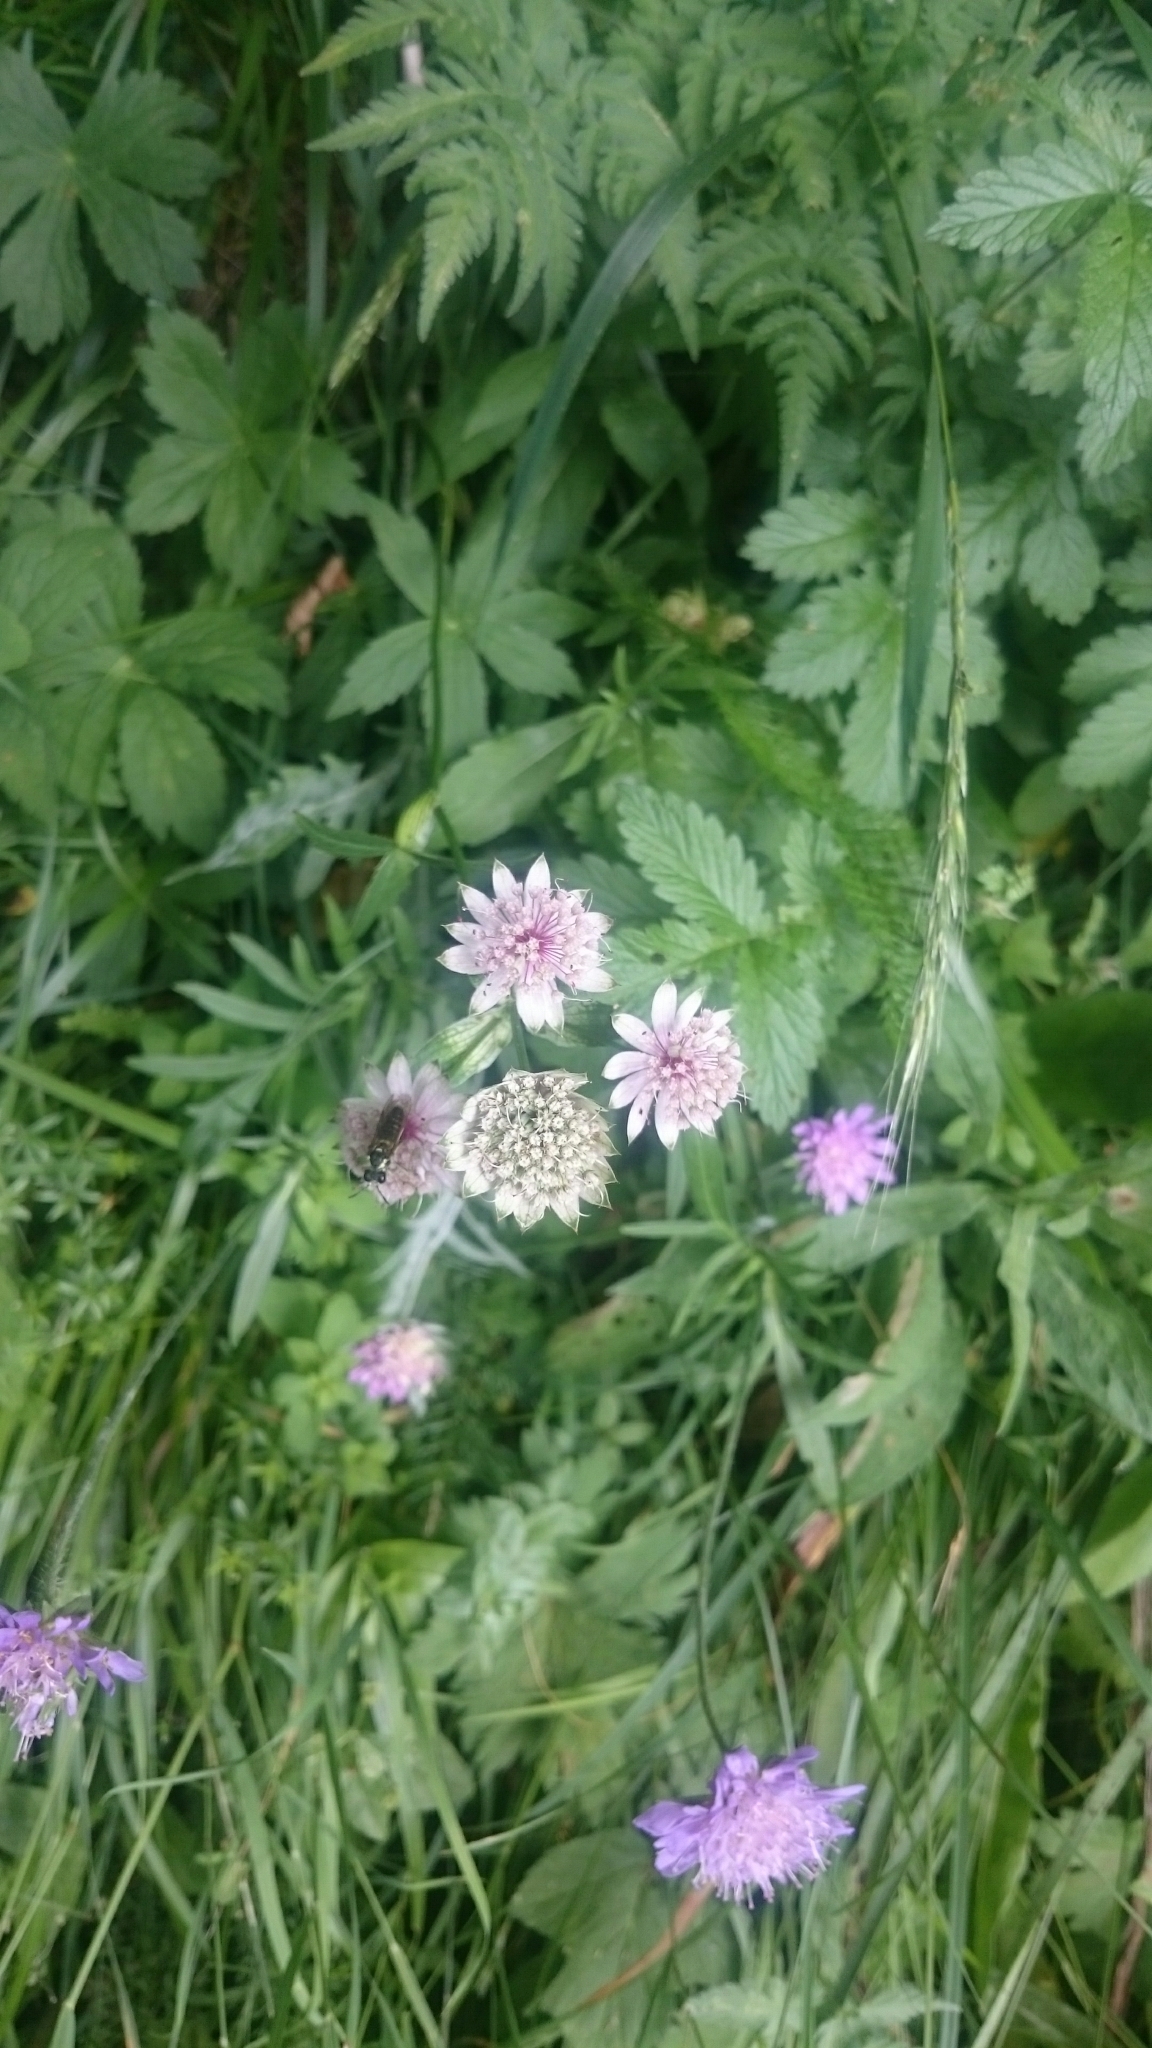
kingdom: Plantae
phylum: Tracheophyta
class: Magnoliopsida
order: Apiales
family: Apiaceae
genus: Astrantia
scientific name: Astrantia major
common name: Greater masterwort
